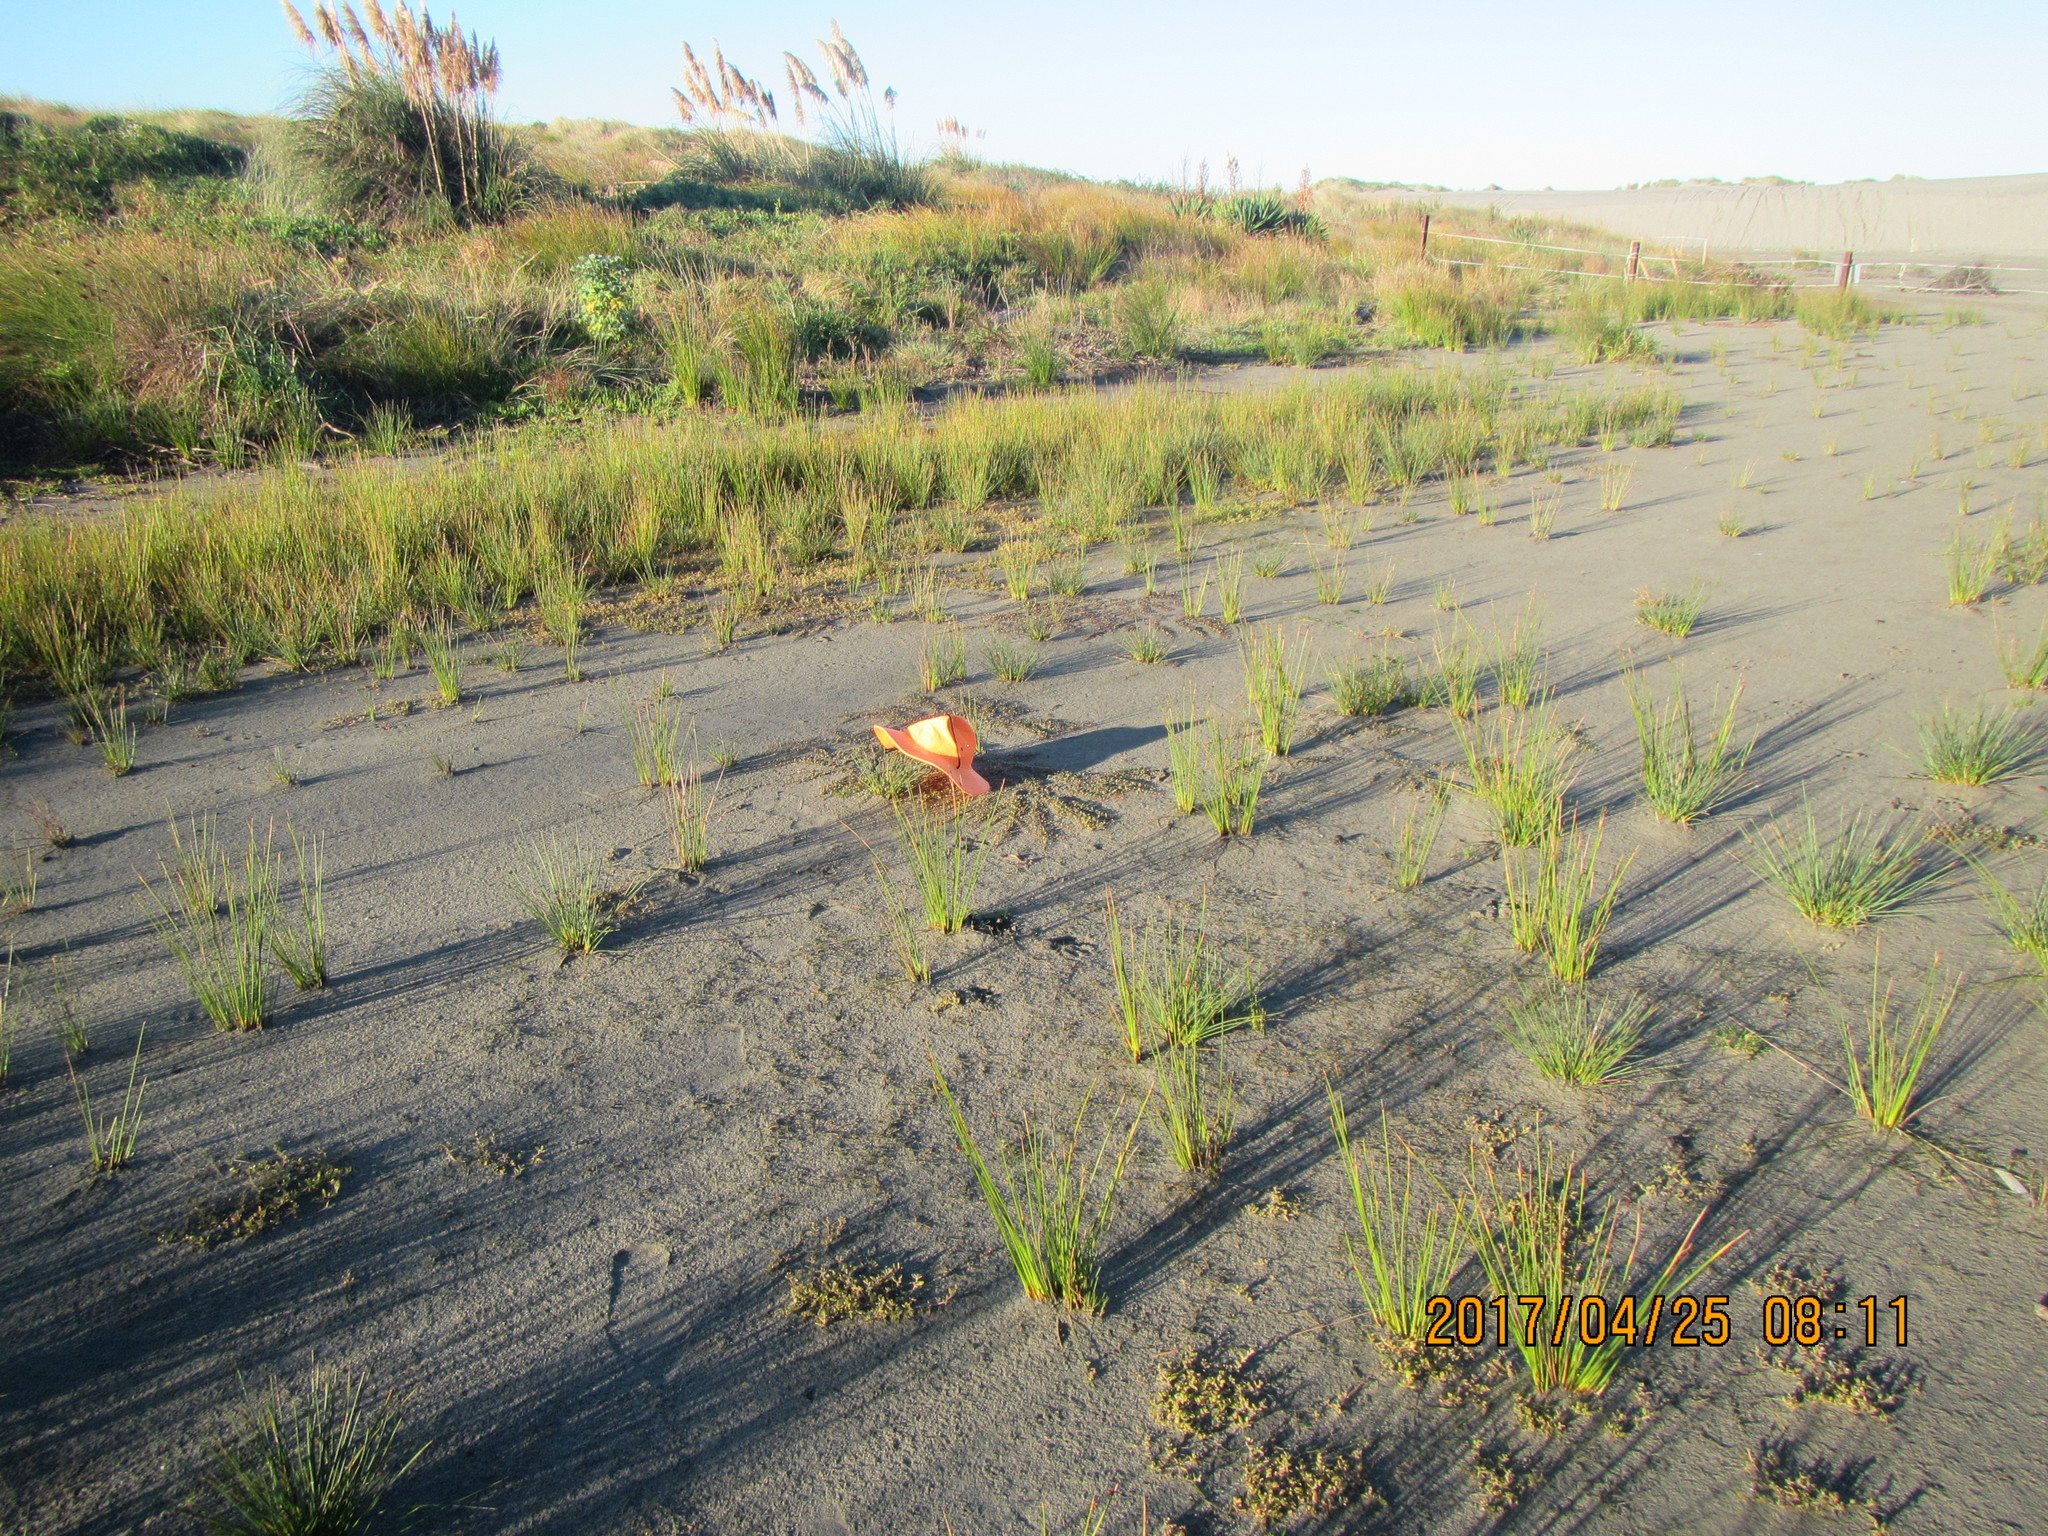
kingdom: Plantae
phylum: Tracheophyta
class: Magnoliopsida
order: Ericales
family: Primulaceae
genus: Samolus
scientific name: Samolus repens
